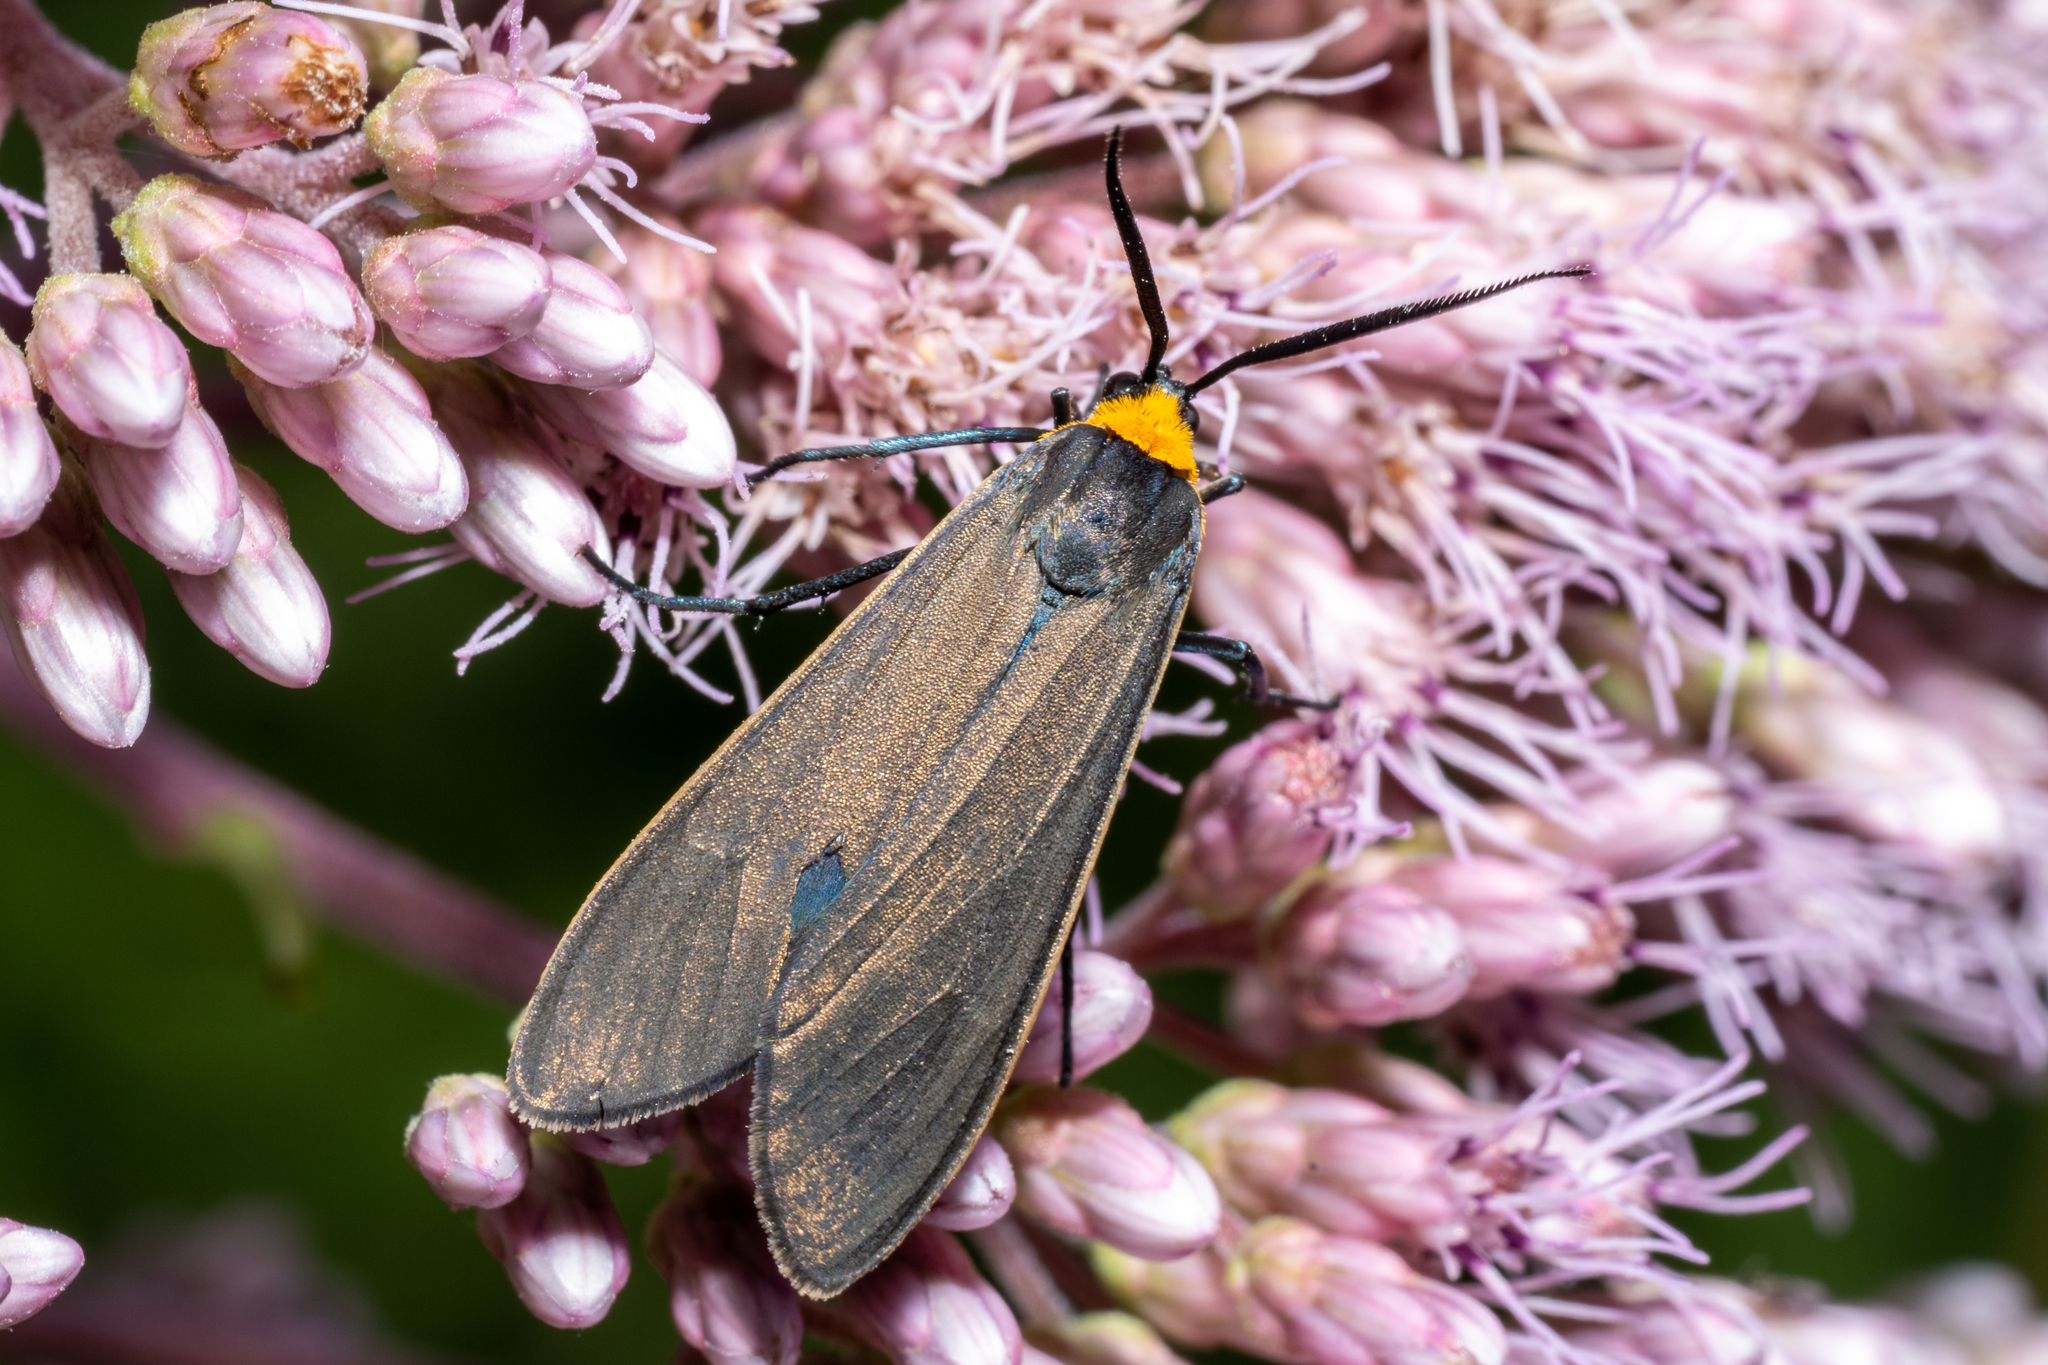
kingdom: Animalia
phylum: Arthropoda
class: Insecta
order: Lepidoptera
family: Erebidae
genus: Cisseps
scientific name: Cisseps fulvicollis
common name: Yellow-collared scape moth
